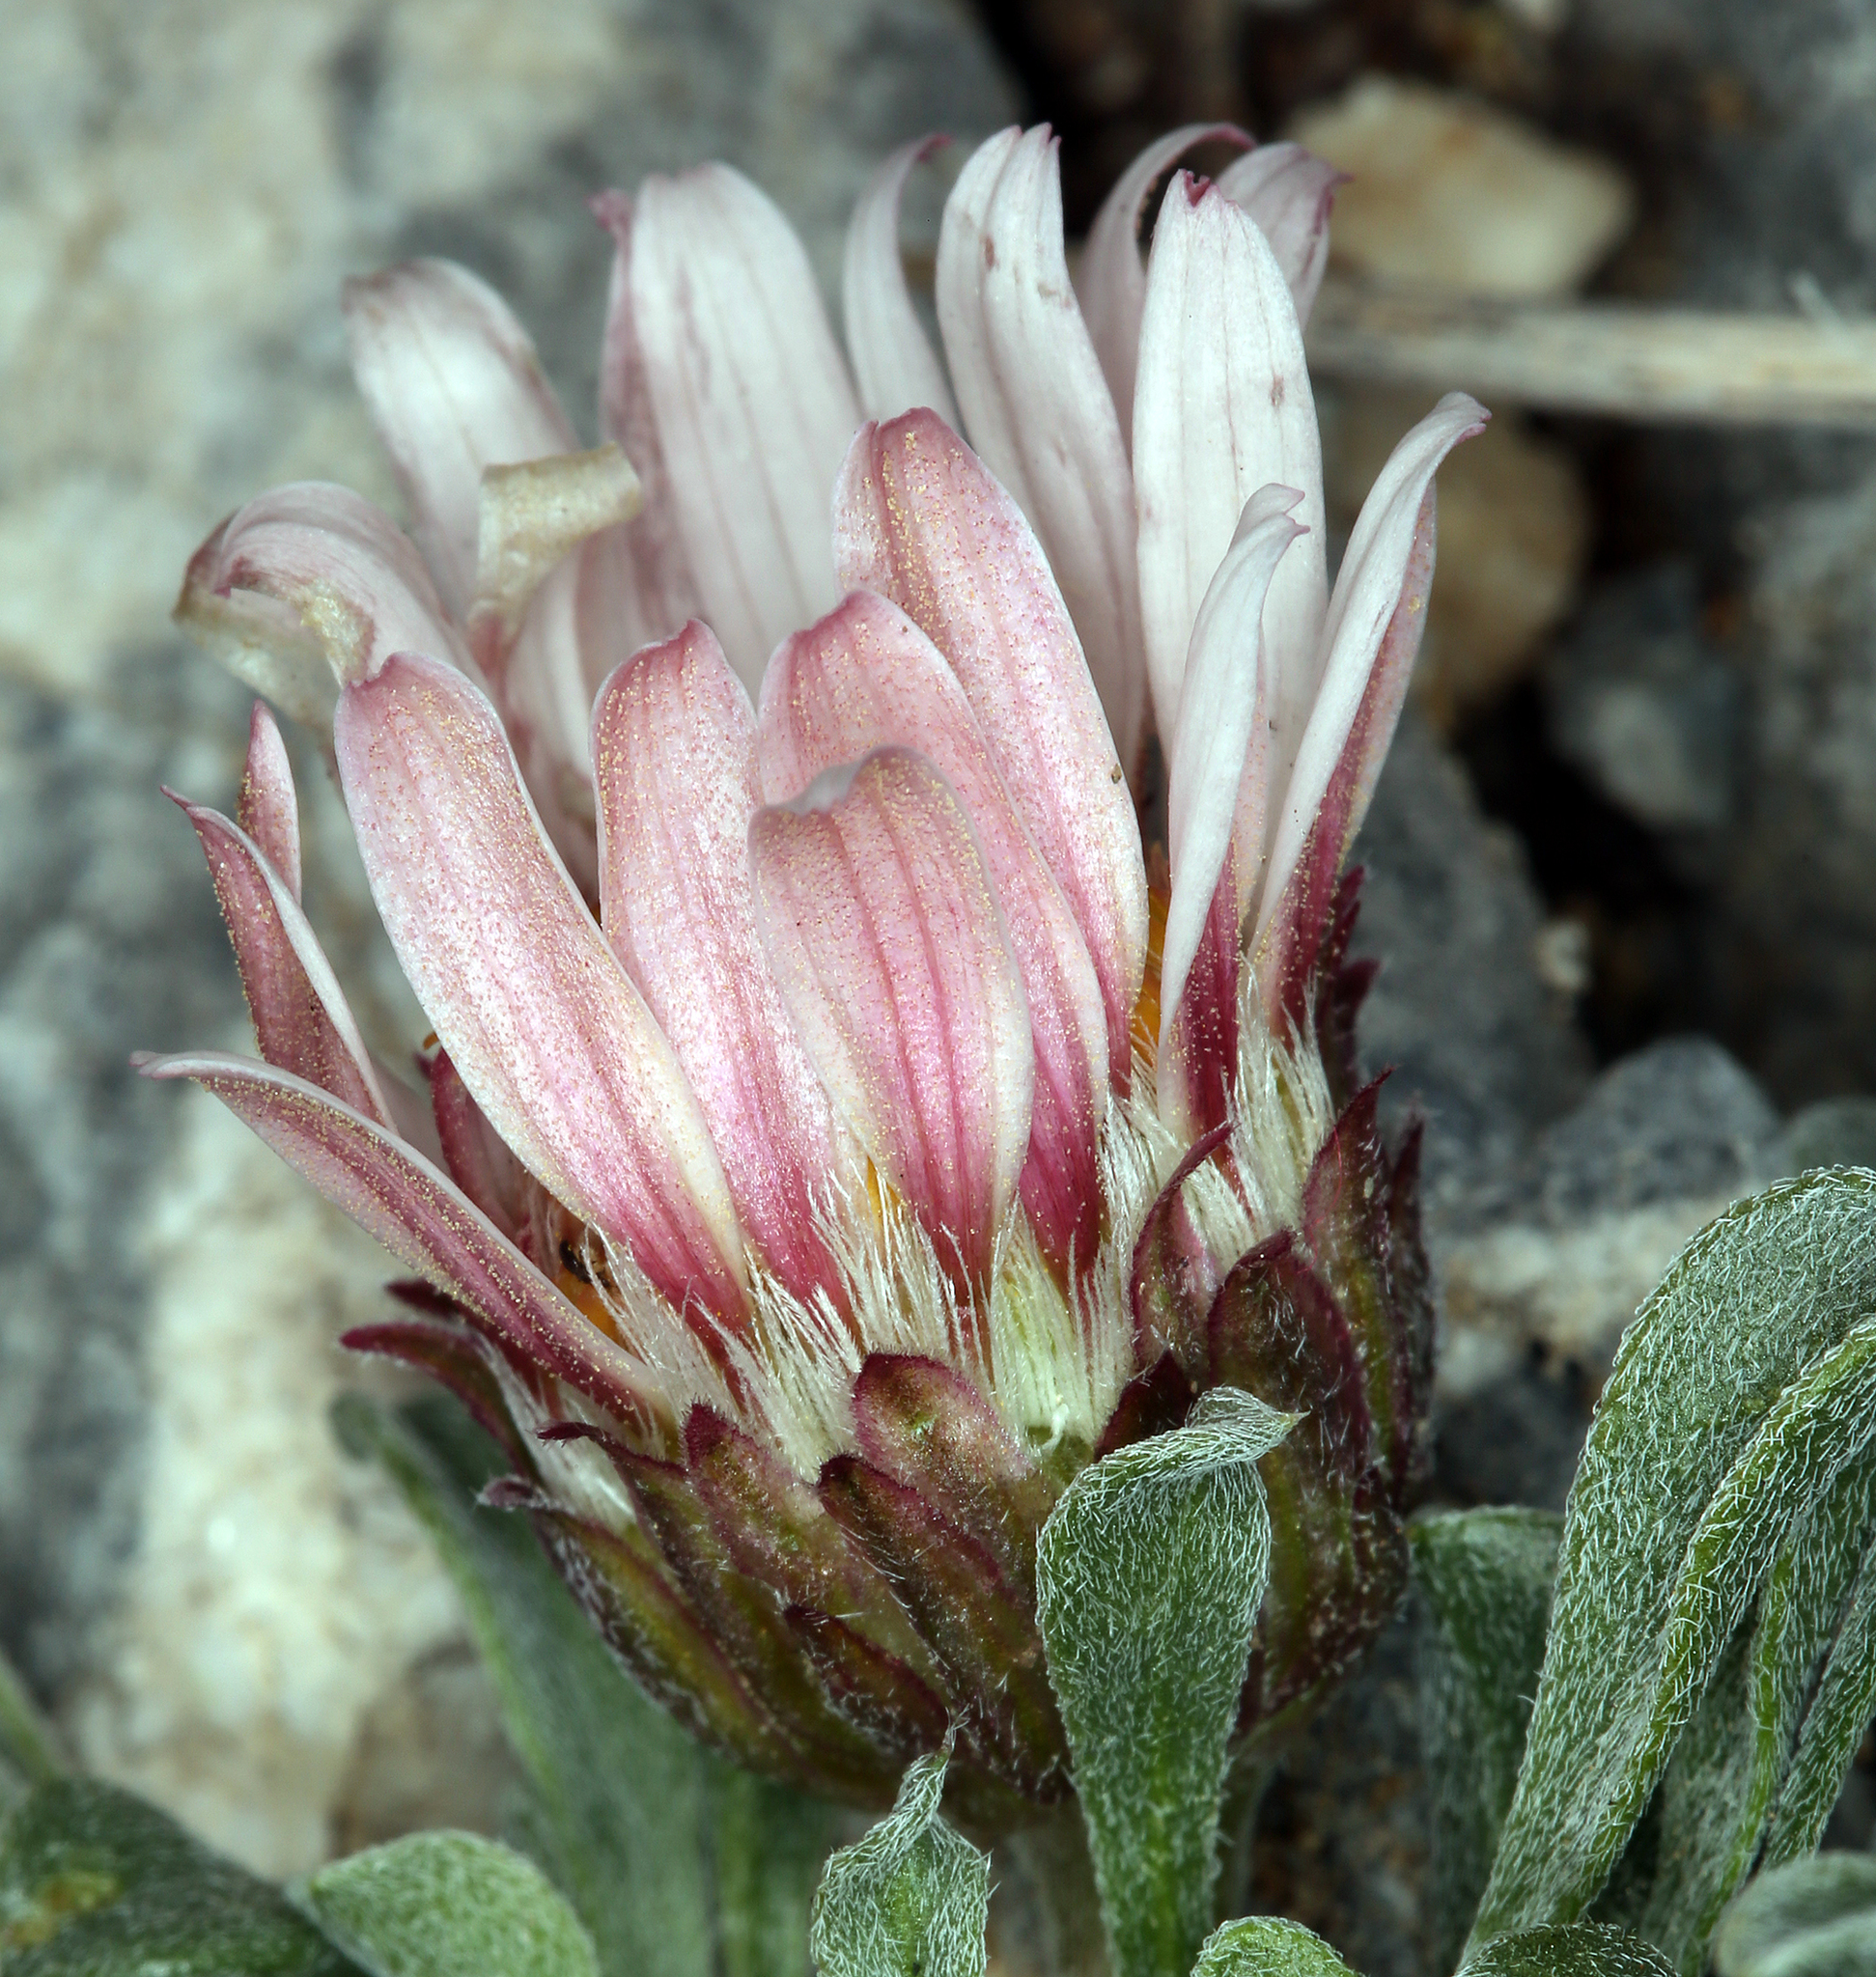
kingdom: Plantae
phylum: Tracheophyta
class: Magnoliopsida
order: Asterales
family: Asteraceae
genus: Townsendia
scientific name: Townsendia scapigera
